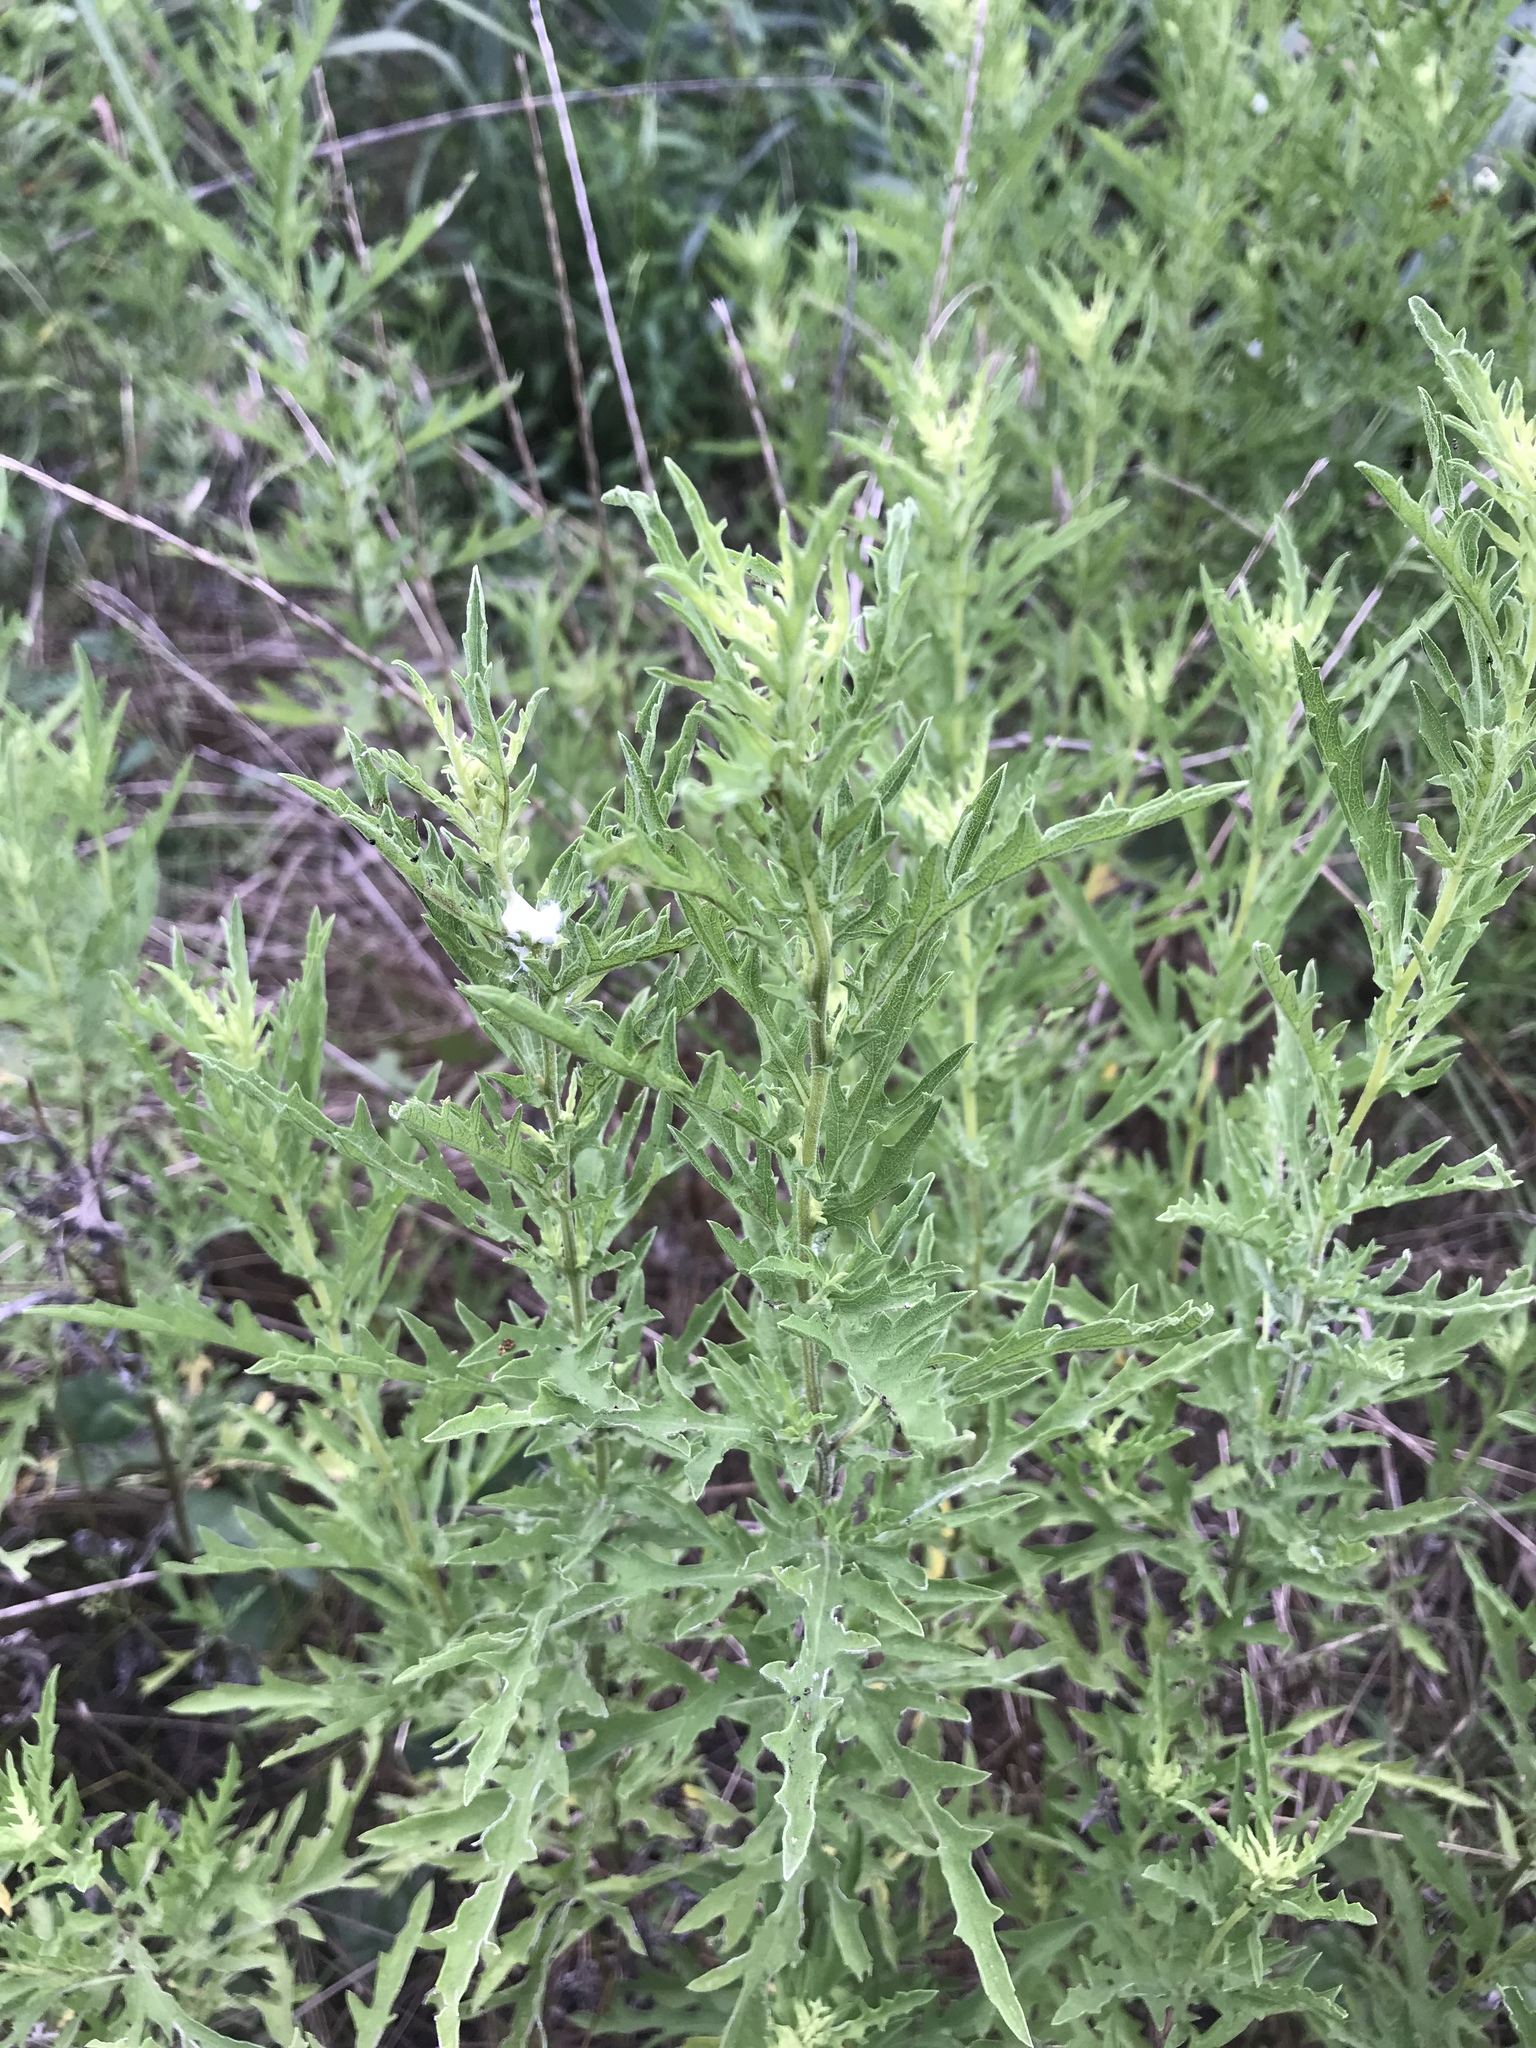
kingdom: Plantae
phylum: Tracheophyta
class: Magnoliopsida
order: Asterales
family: Asteraceae
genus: Ambrosia
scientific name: Ambrosia psilostachya
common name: Perennial ragweed
